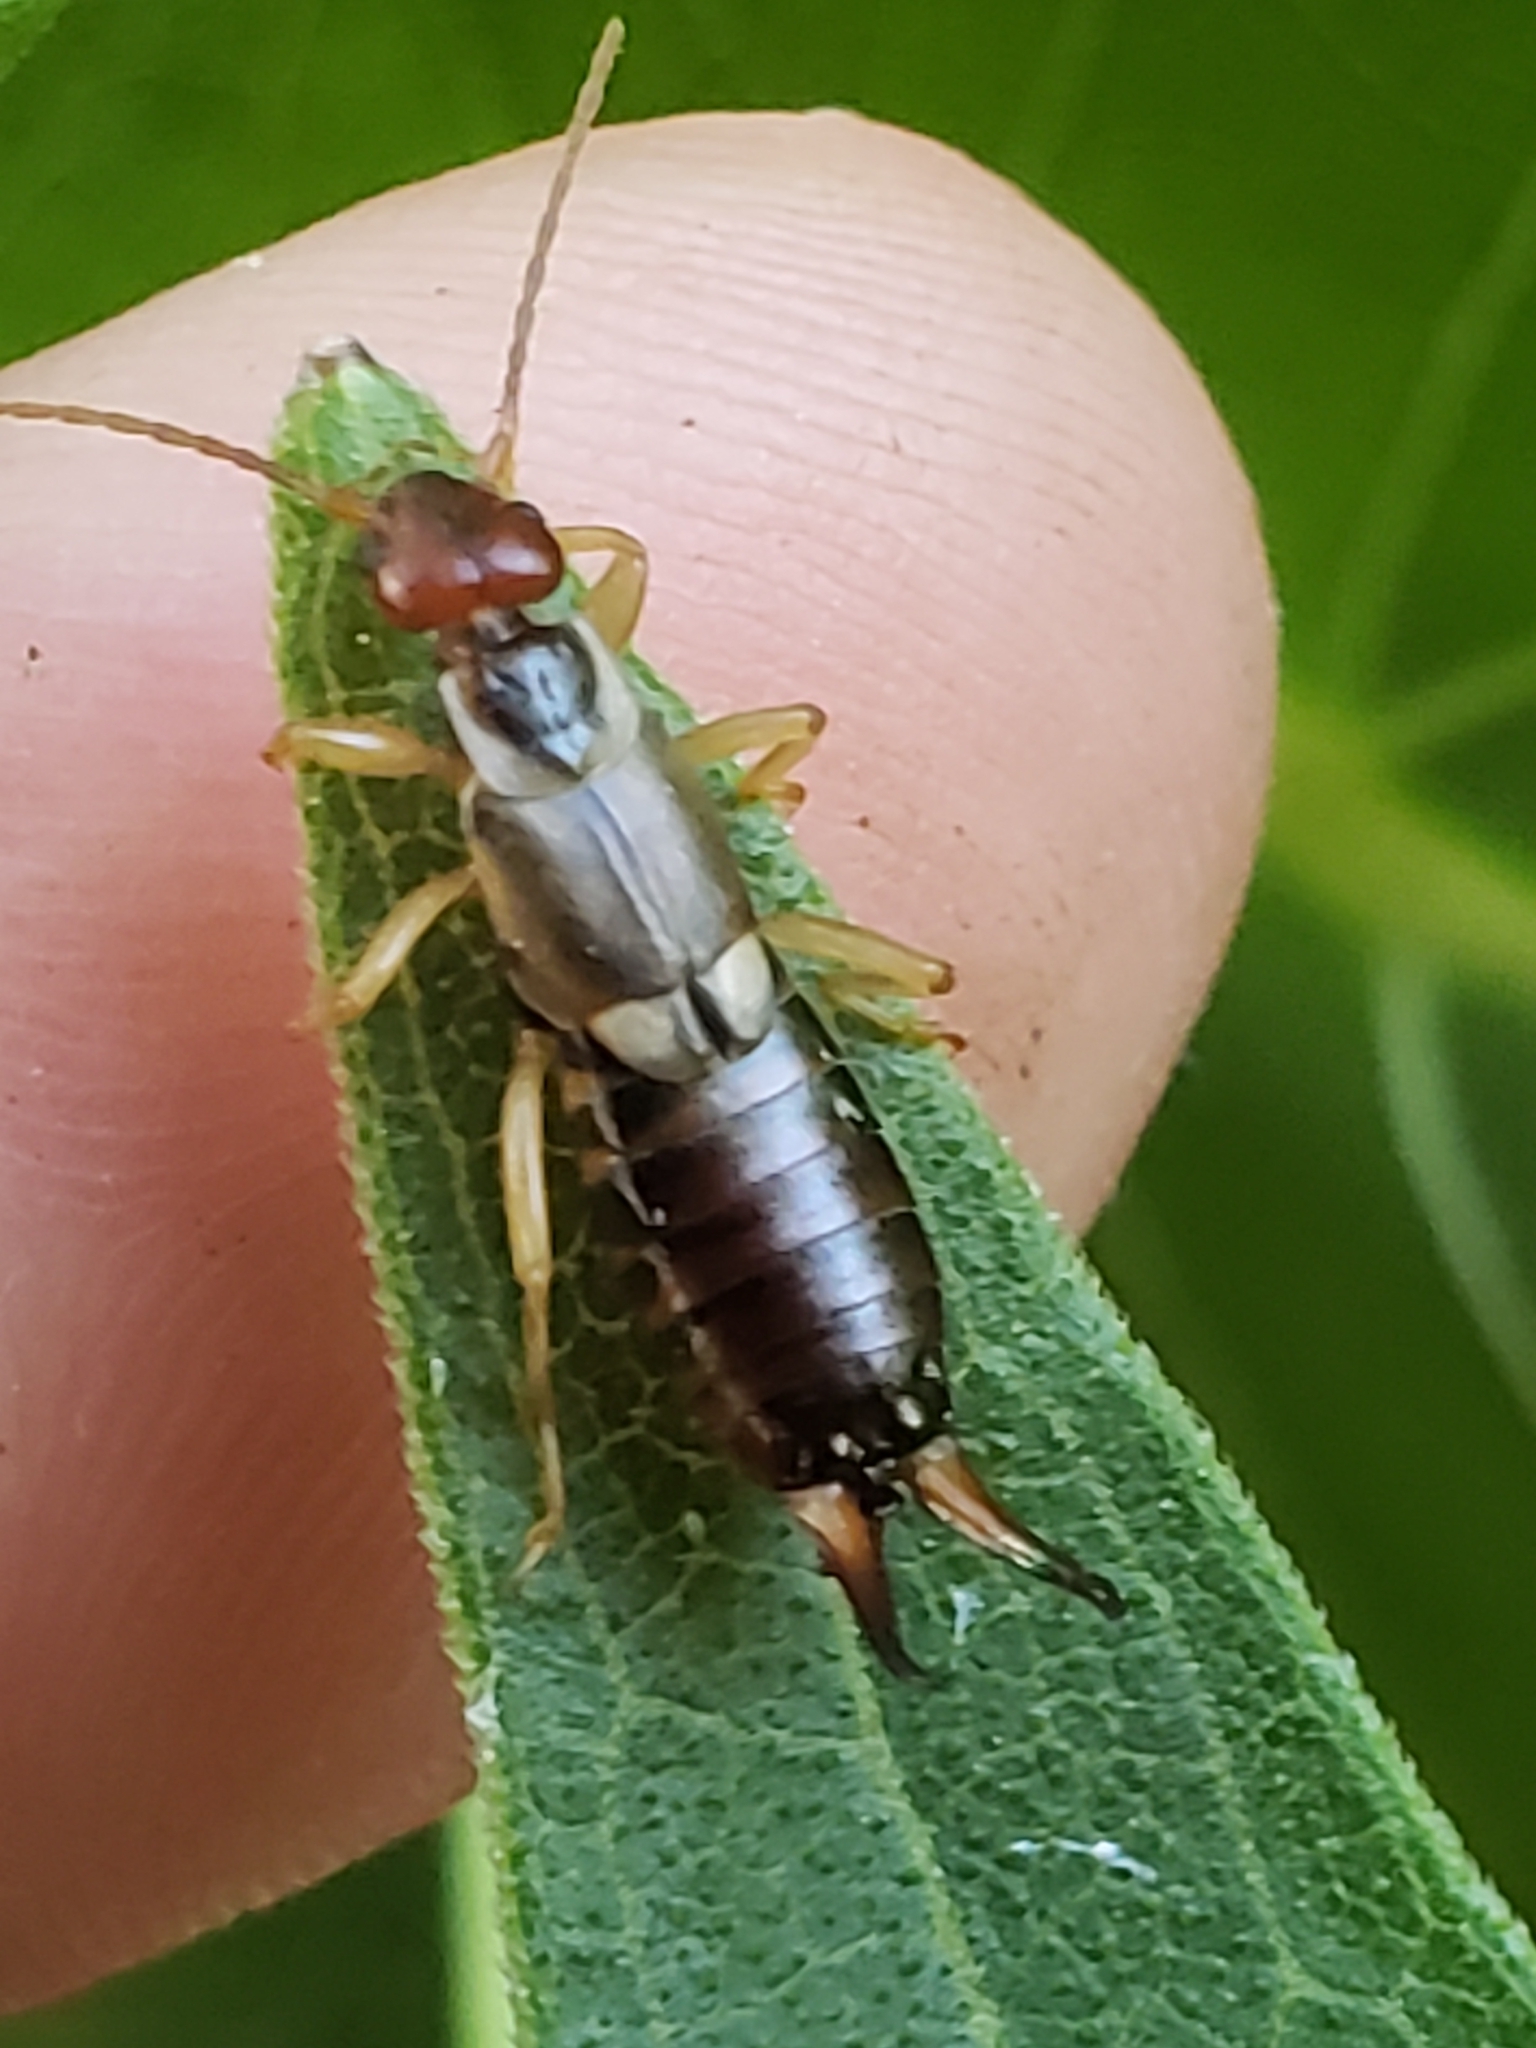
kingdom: Animalia
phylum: Arthropoda
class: Insecta
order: Dermaptera
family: Forficulidae
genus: Forficula
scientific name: Forficula
